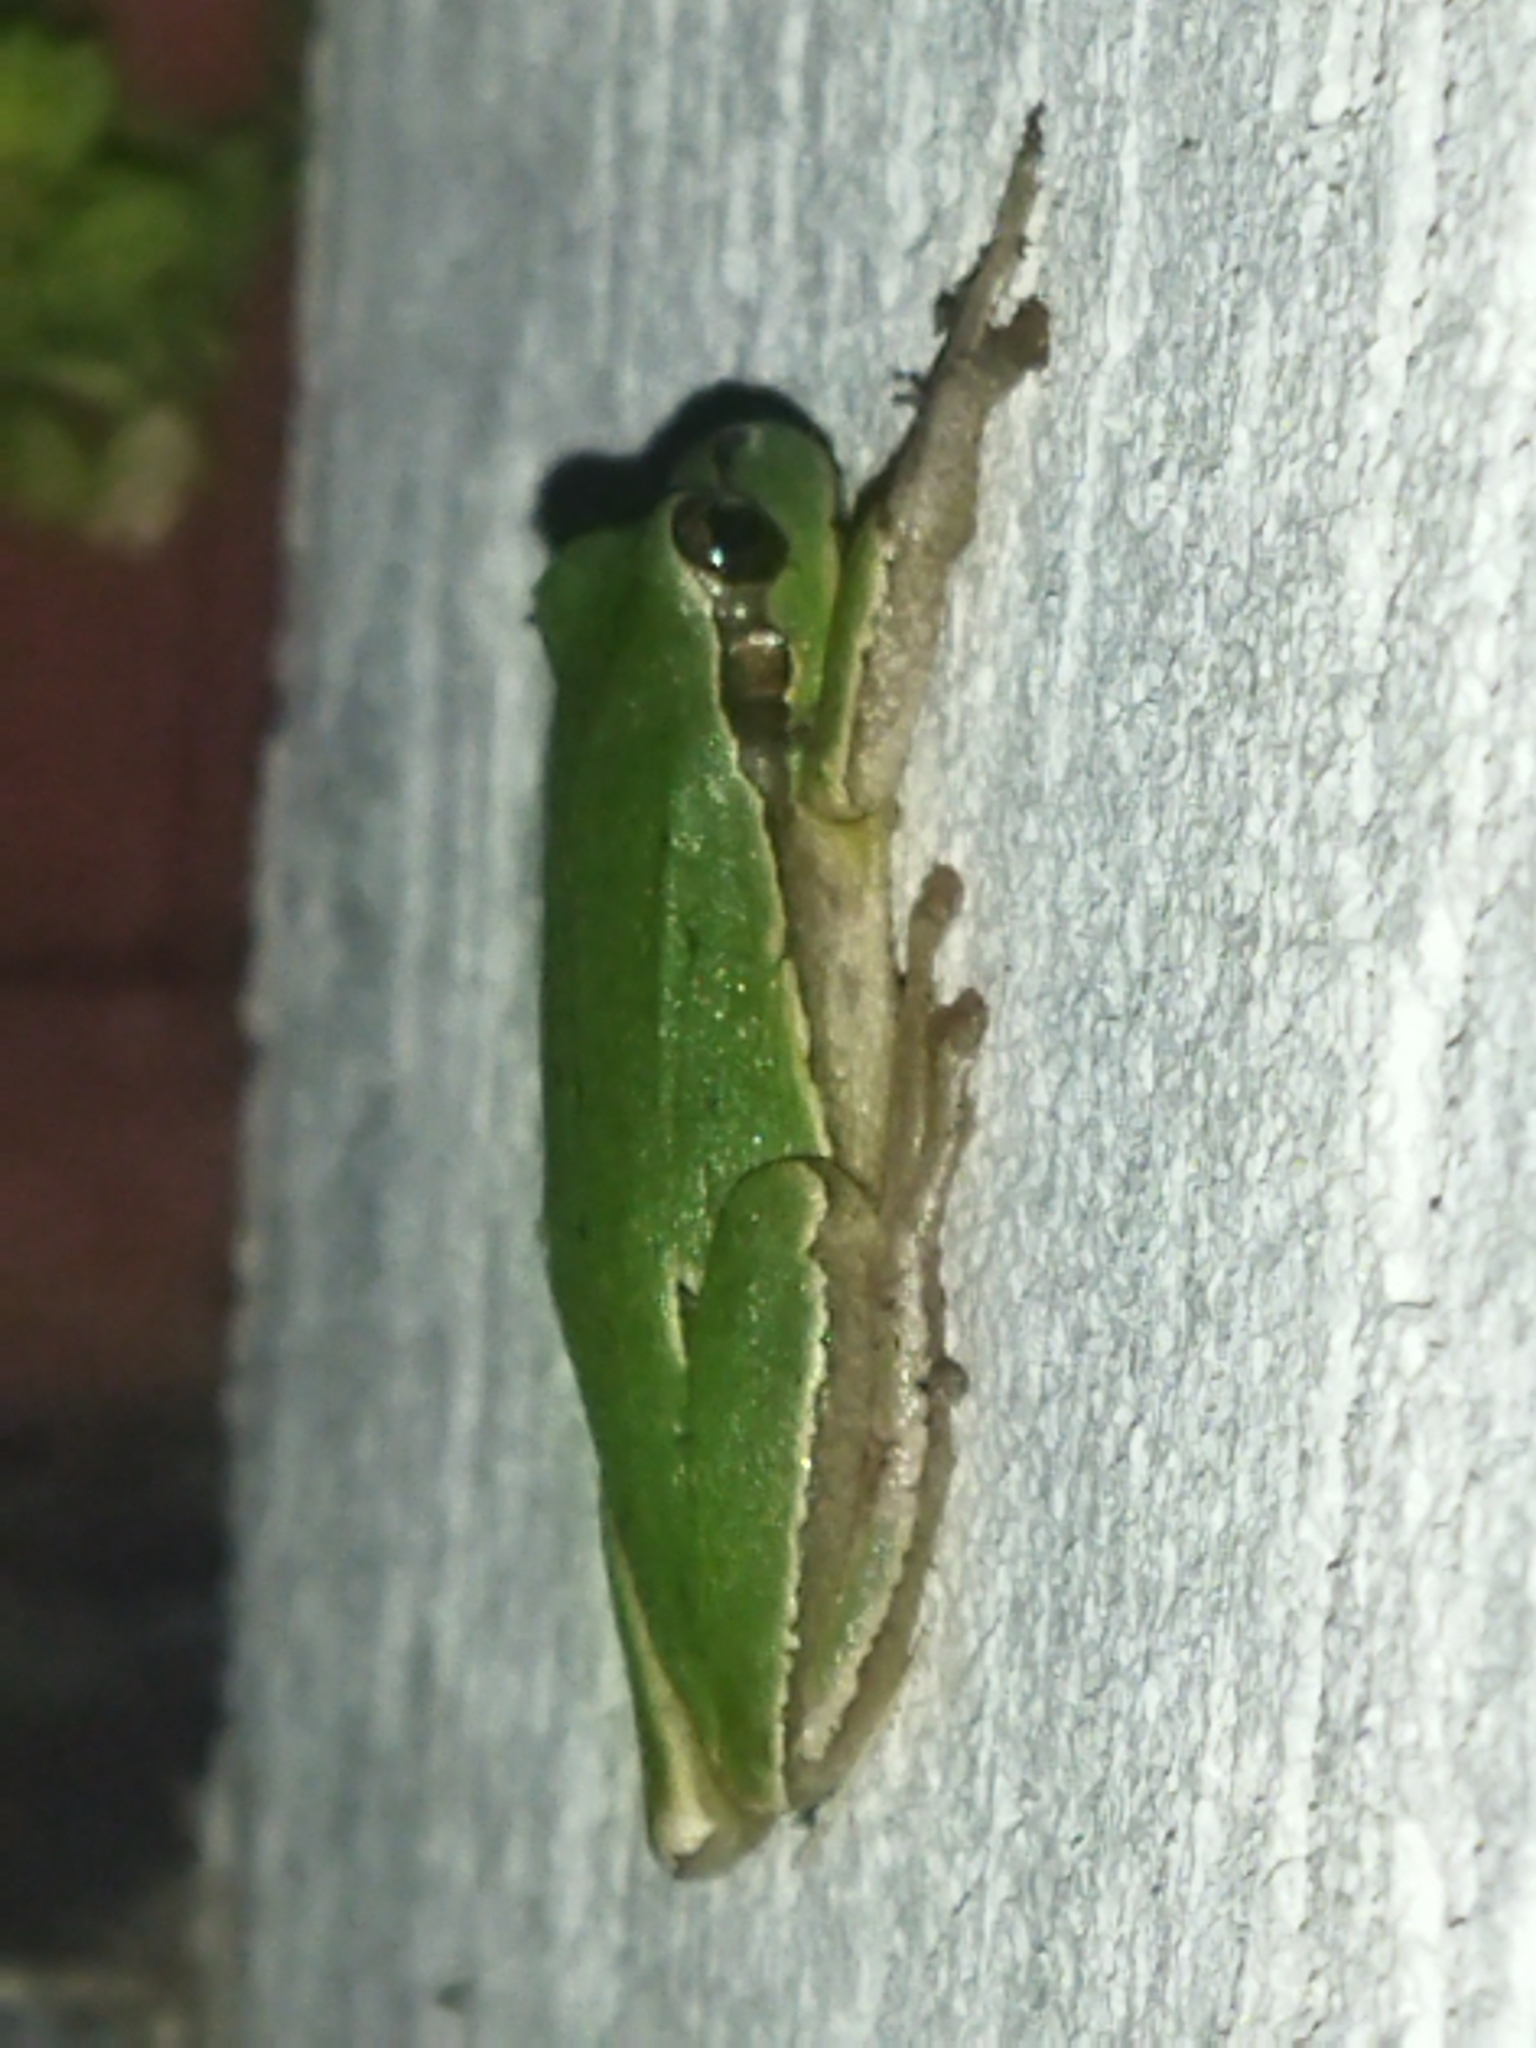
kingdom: Animalia
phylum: Chordata
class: Amphibia
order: Anura
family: Hylidae
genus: Hyla
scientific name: Hyla orientalis
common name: Caucasian treefrog
